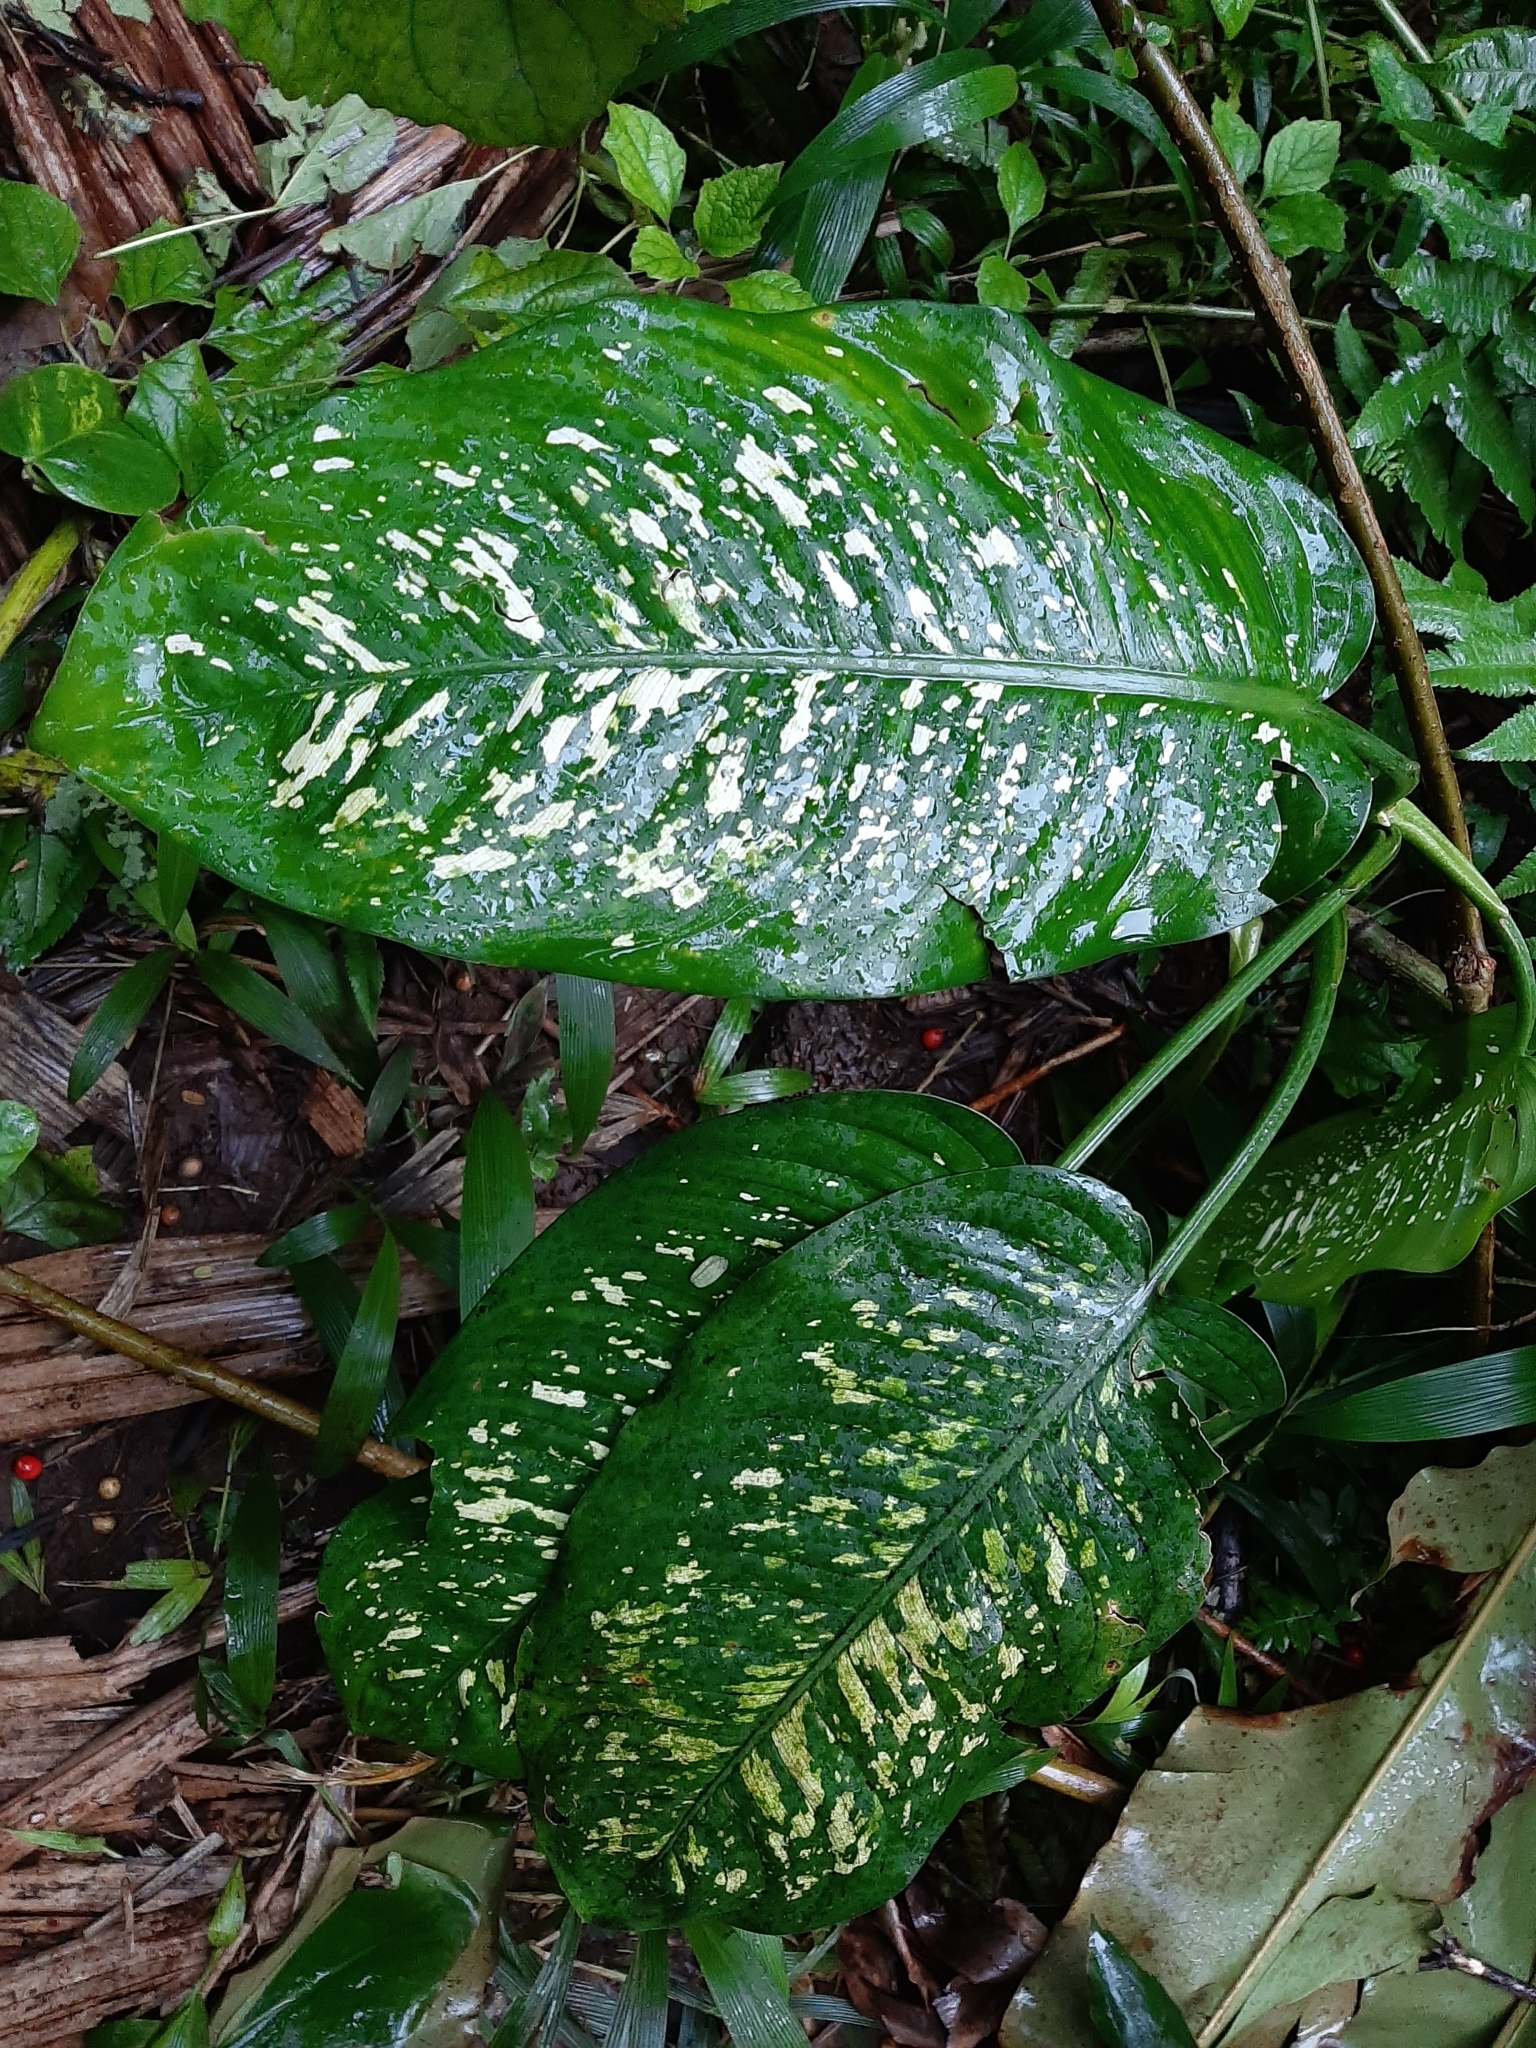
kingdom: Plantae
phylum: Tracheophyta
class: Liliopsida
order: Alismatales
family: Araceae
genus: Dieffenbachia
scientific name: Dieffenbachia seguine
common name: Dumbcane
